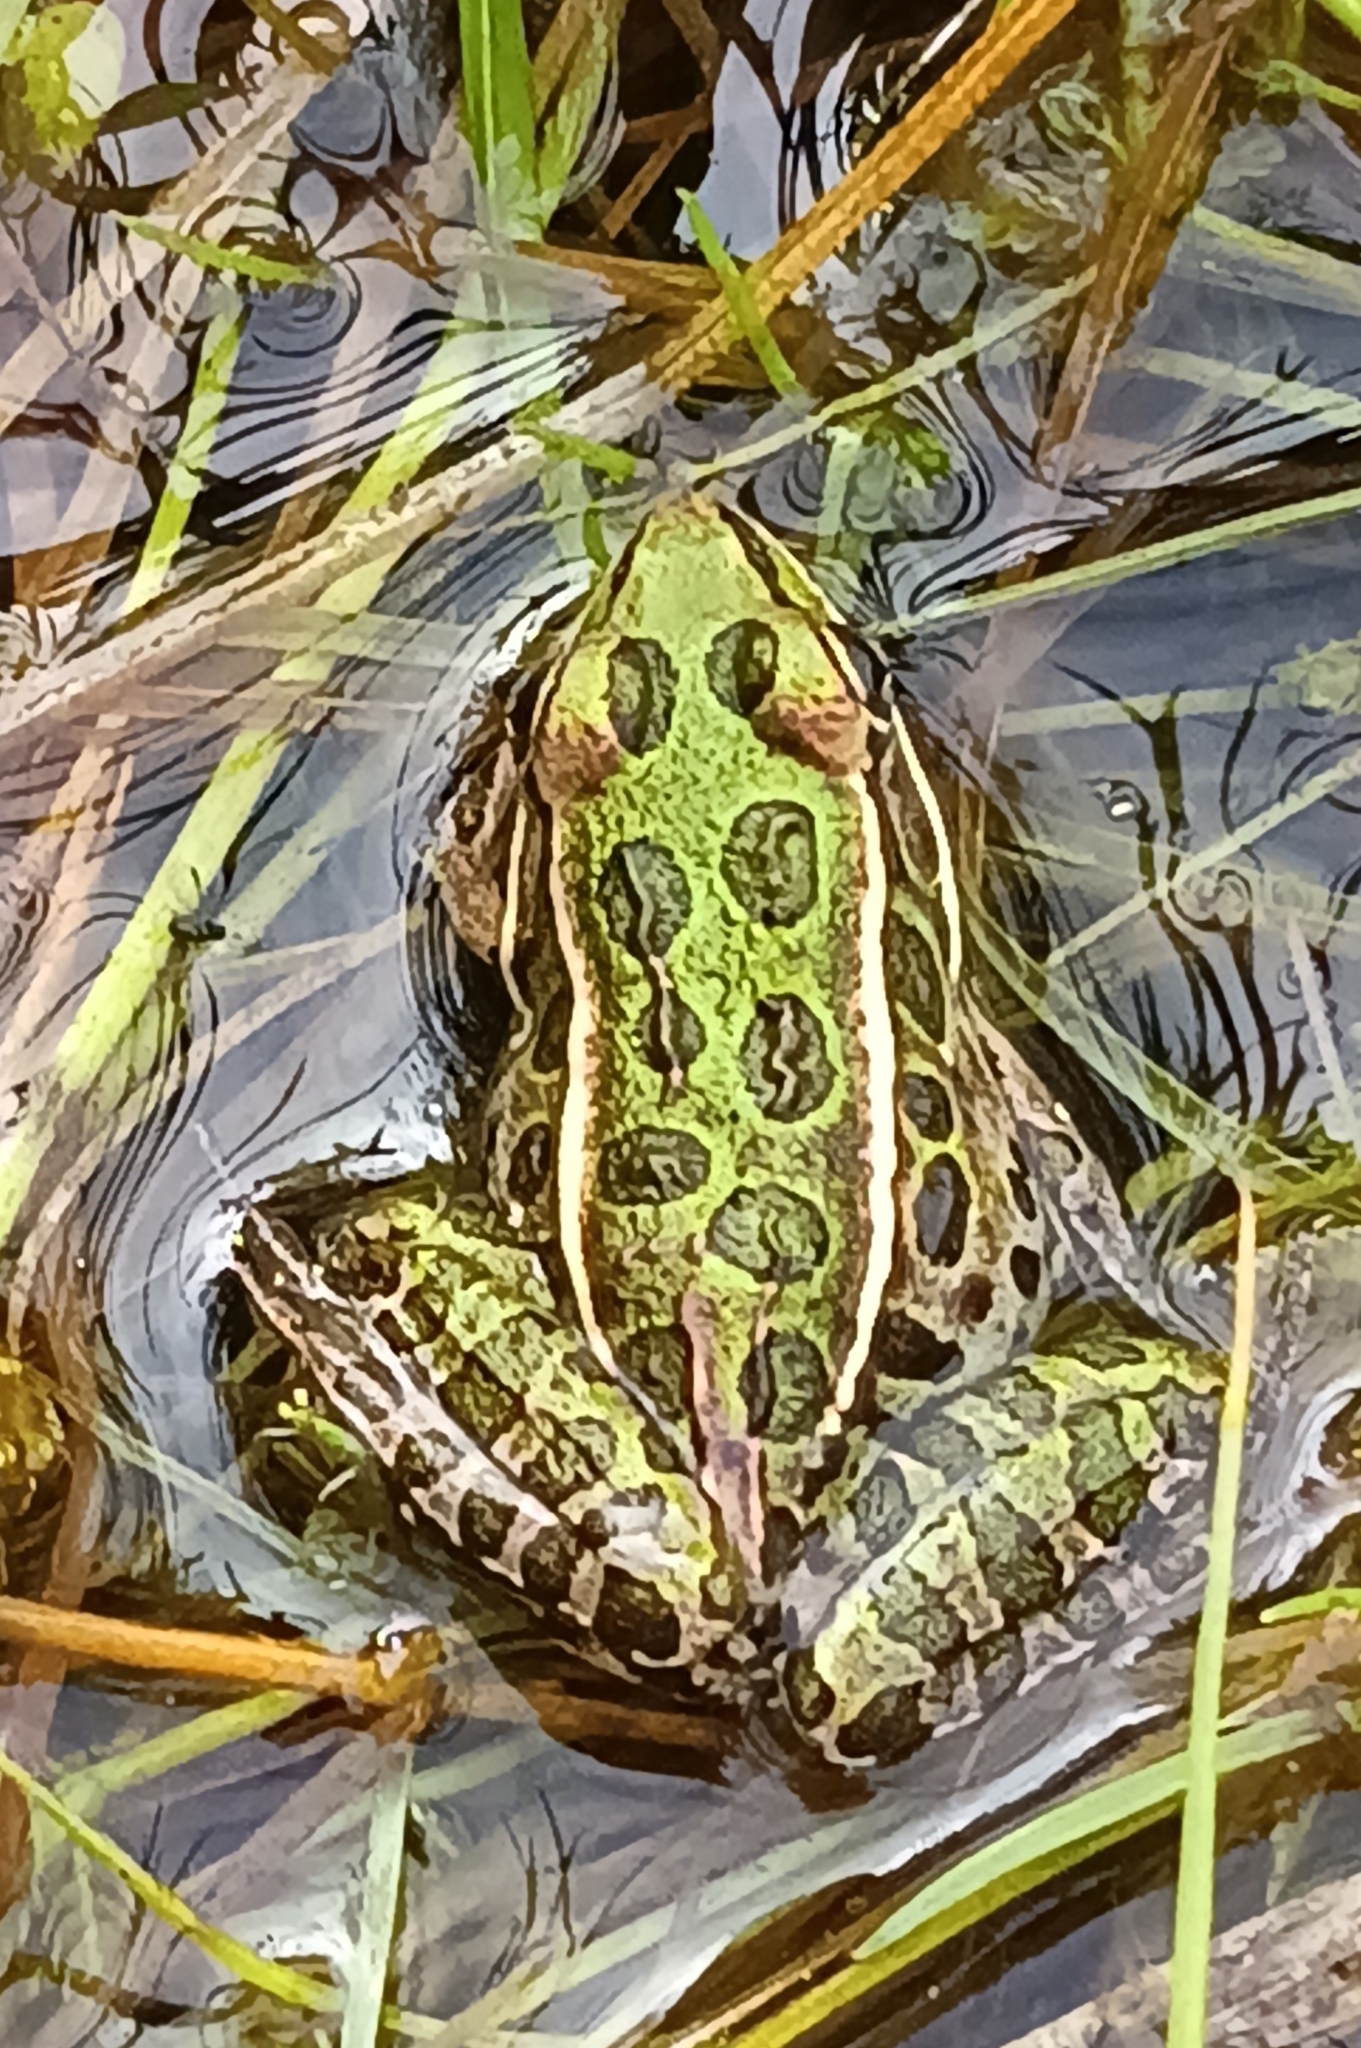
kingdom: Animalia
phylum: Chordata
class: Amphibia
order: Anura
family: Ranidae
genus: Lithobates
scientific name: Lithobates pipiens
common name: Northern leopard frog
